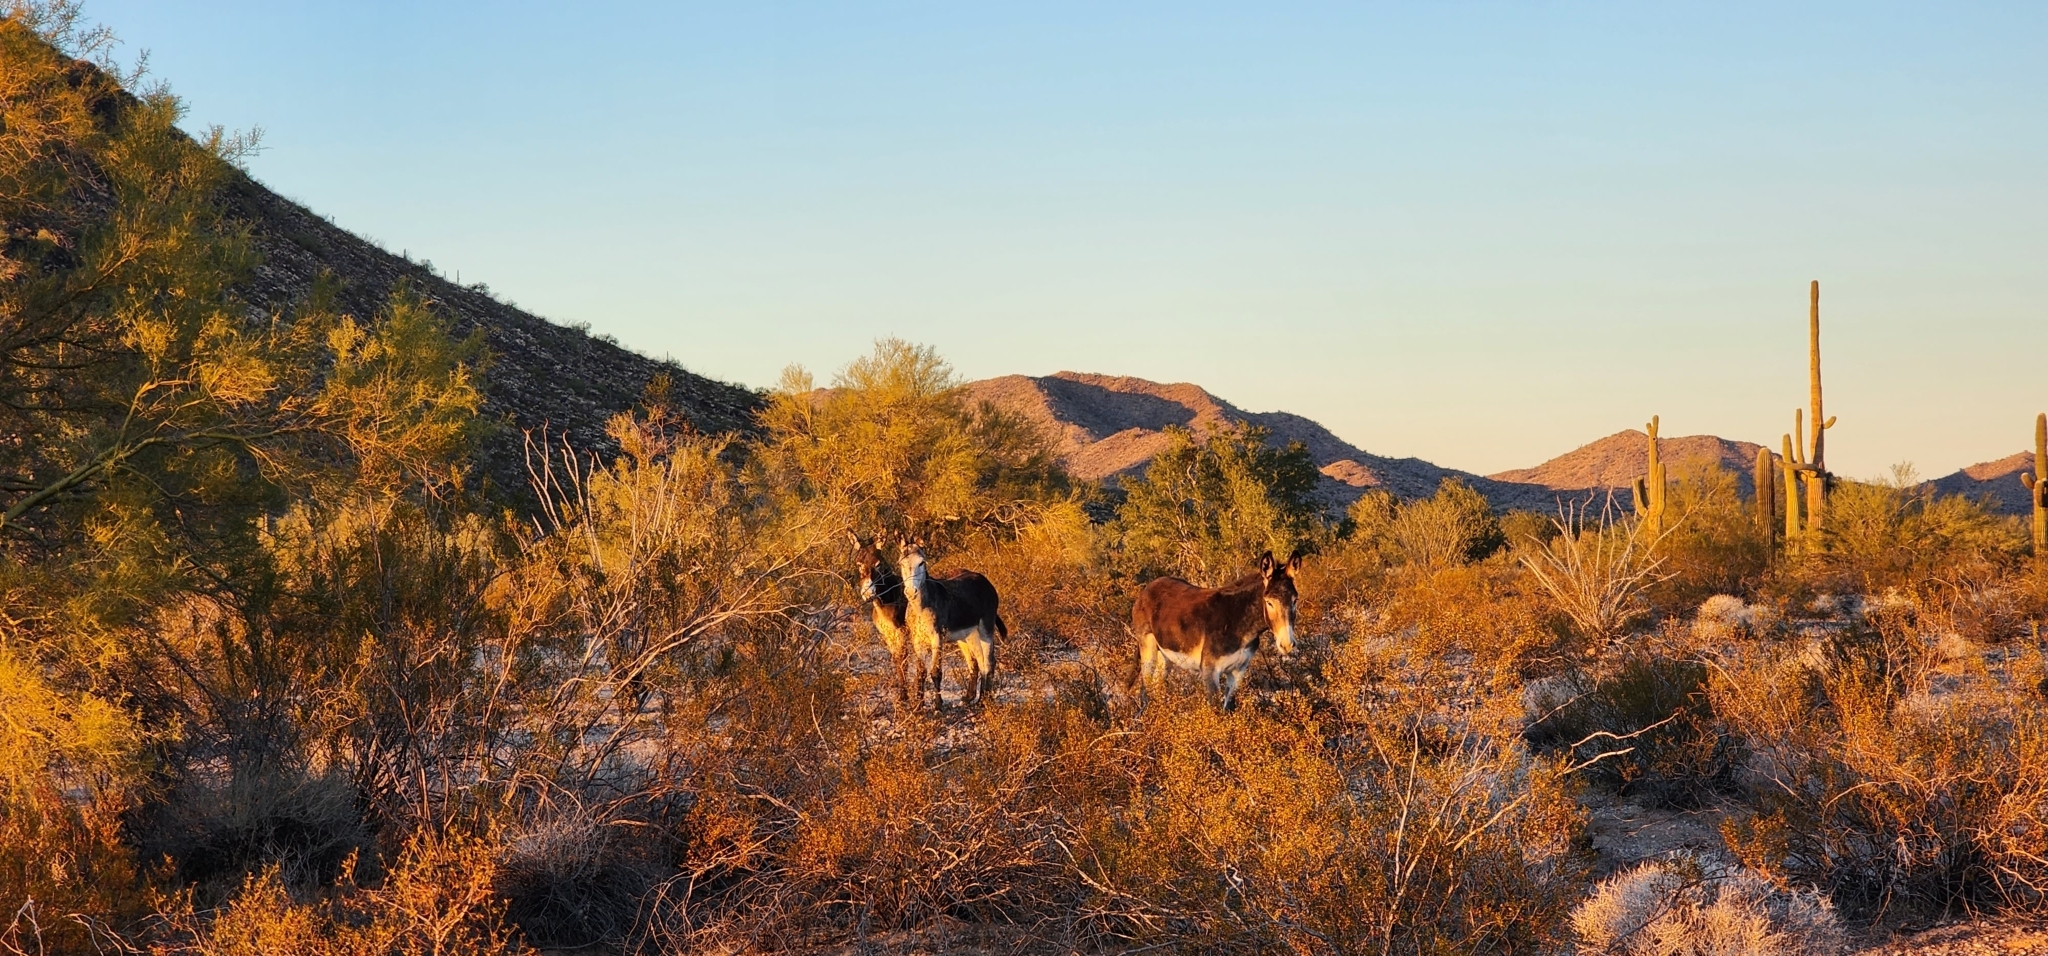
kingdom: Animalia
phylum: Chordata
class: Mammalia
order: Perissodactyla
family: Equidae
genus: Equus
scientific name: Equus asinus
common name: Ass
